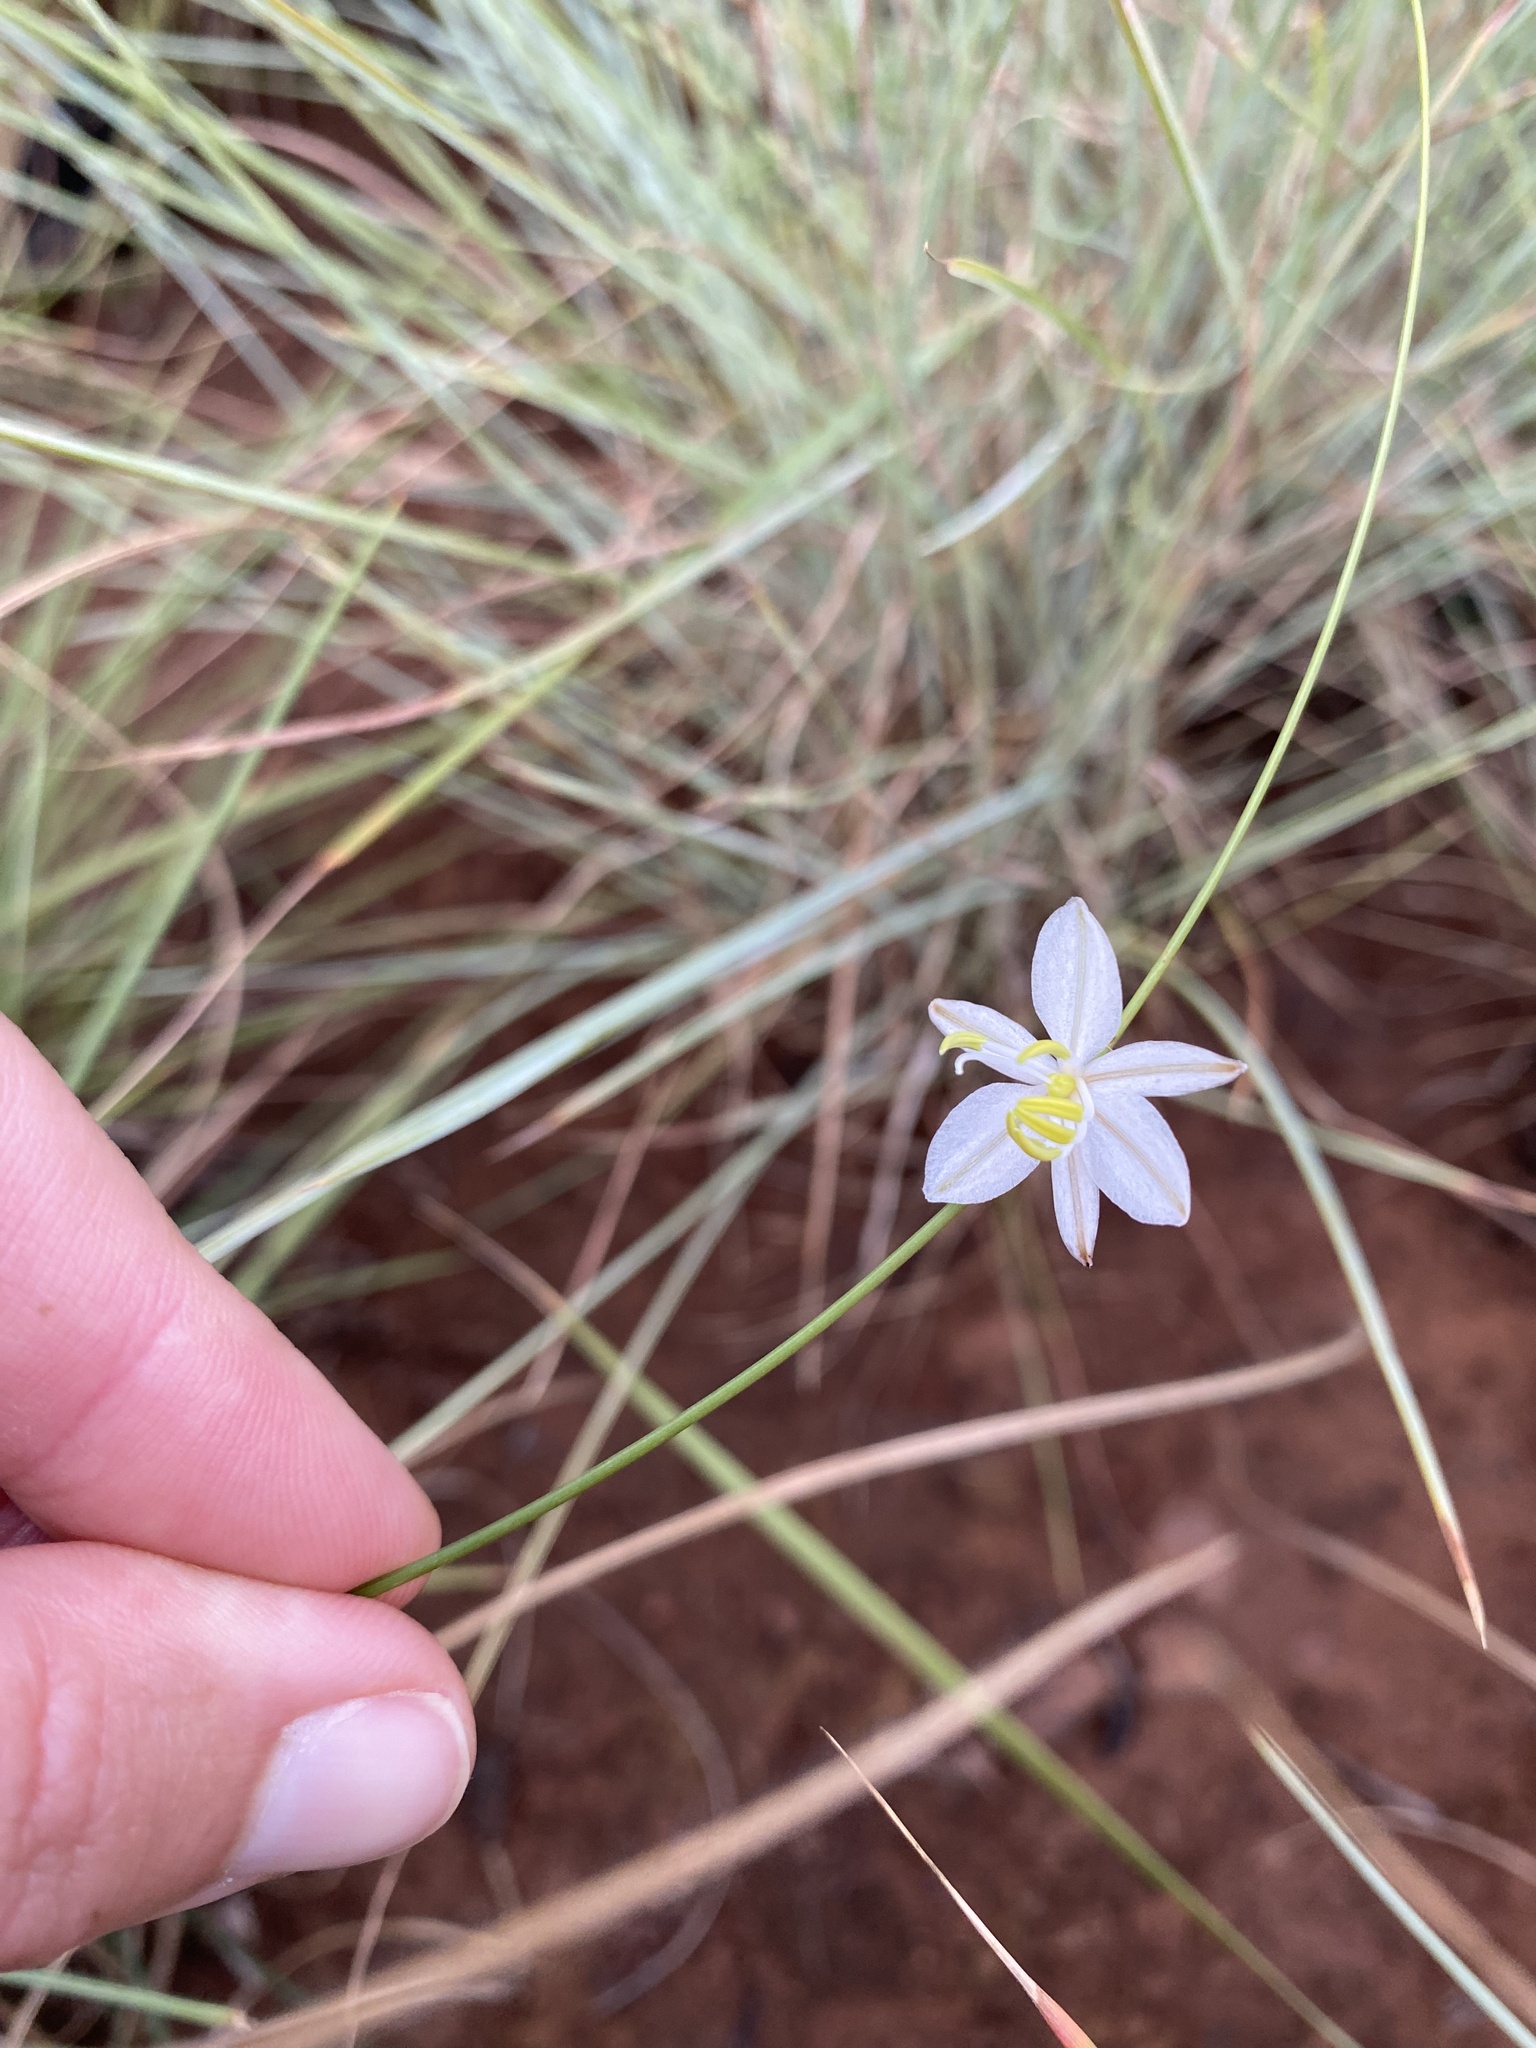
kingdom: Plantae
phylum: Tracheophyta
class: Liliopsida
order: Asparagales
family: Asparagaceae
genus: Chlorophytum
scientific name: Chlorophytum cooperi
